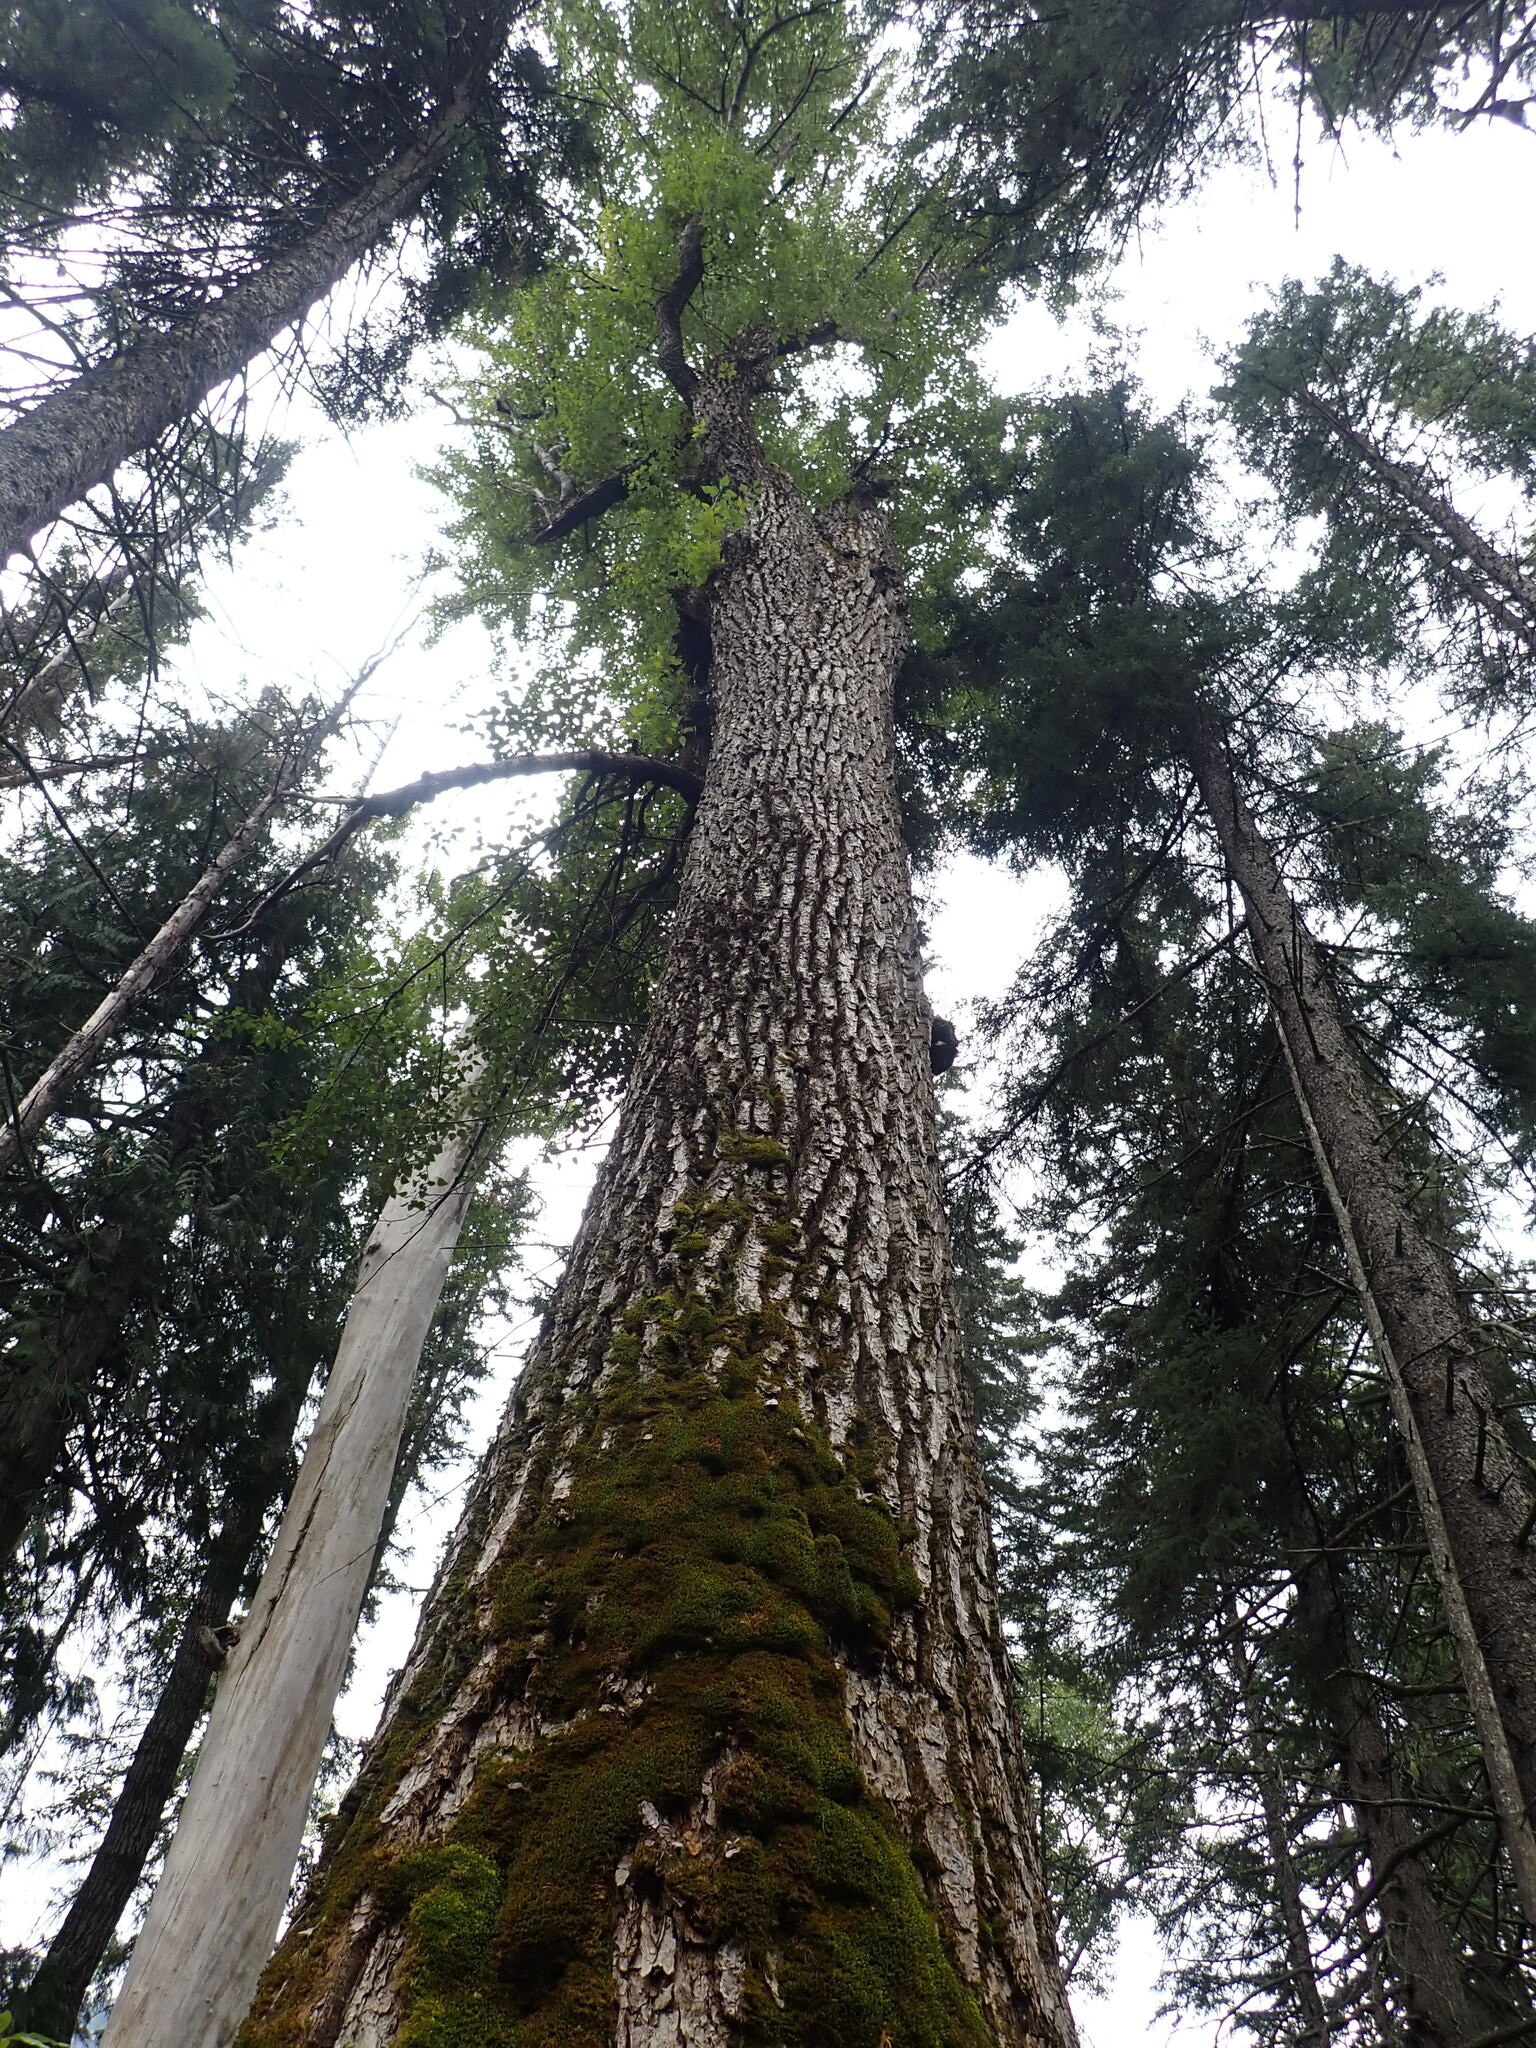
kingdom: Plantae
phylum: Tracheophyta
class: Magnoliopsida
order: Malpighiales
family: Salicaceae
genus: Populus
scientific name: Populus trichocarpa
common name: Black cottonwood
